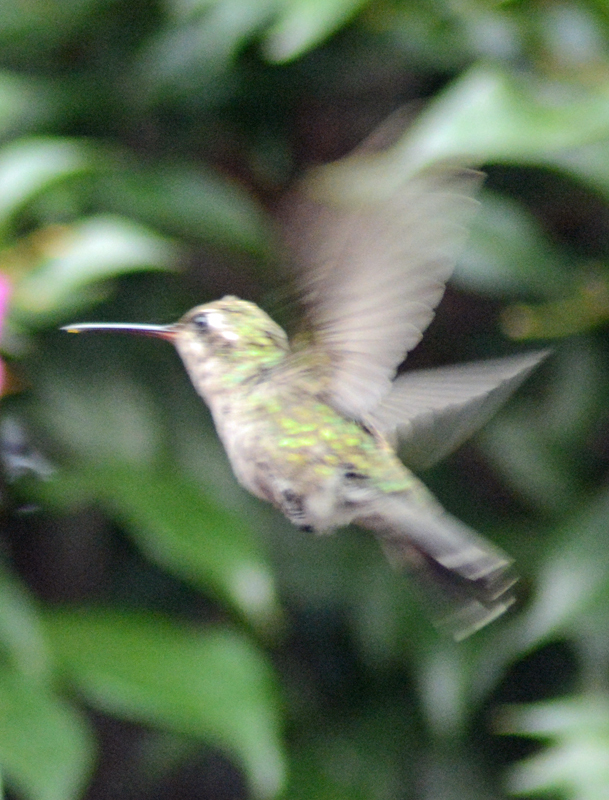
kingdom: Animalia
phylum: Chordata
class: Aves
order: Apodiformes
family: Trochilidae
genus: Cynanthus
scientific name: Cynanthus latirostris
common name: Broad-billed hummingbird
